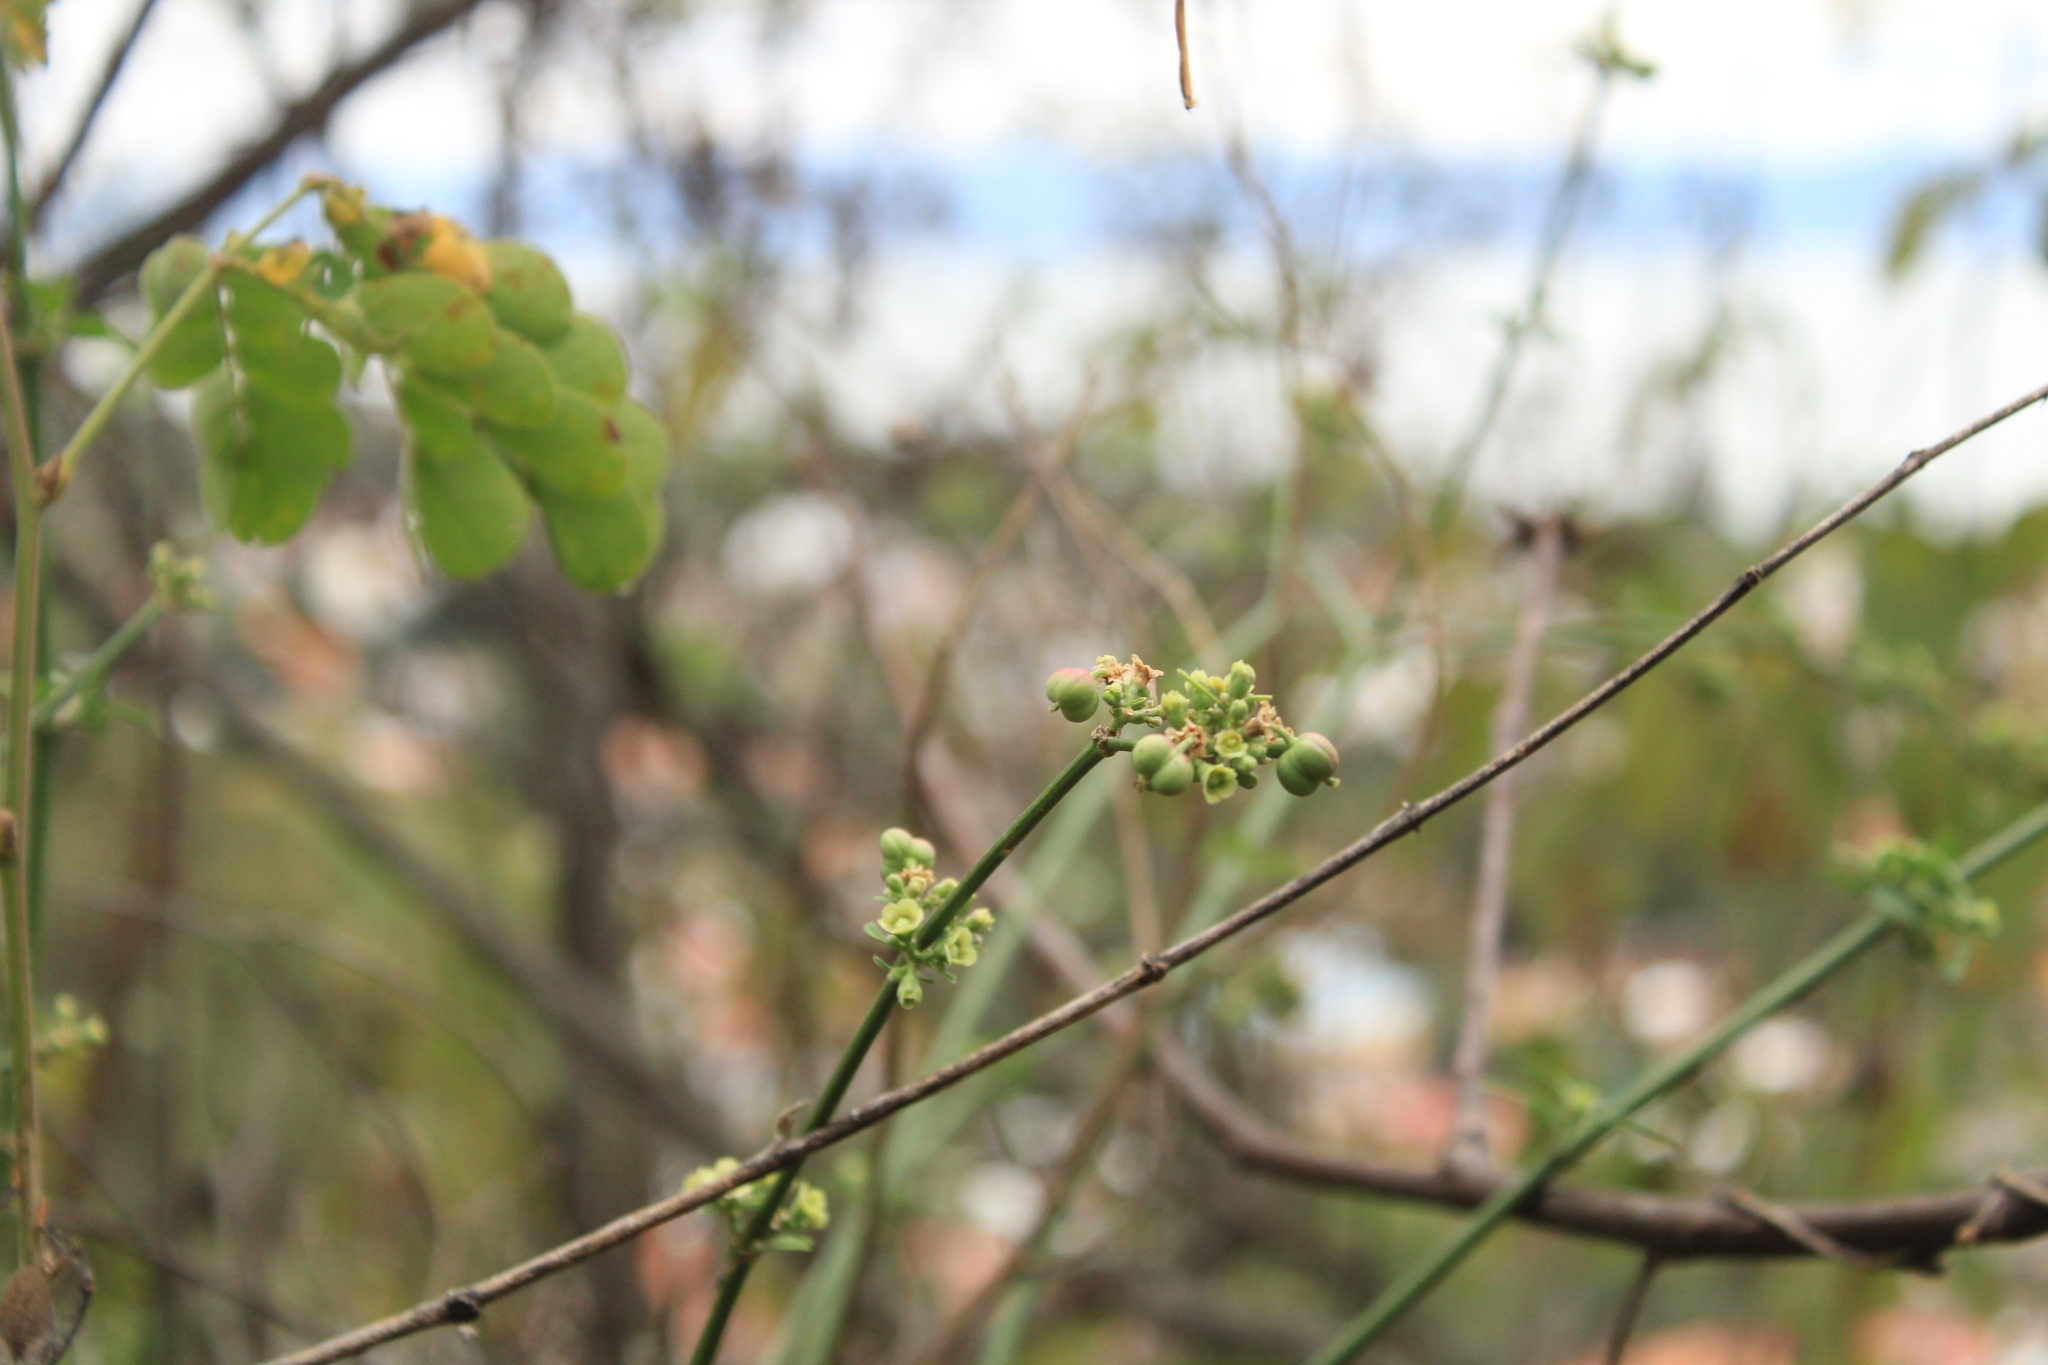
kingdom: Plantae
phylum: Tracheophyta
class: Magnoliopsida
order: Malpighiales
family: Euphorbiaceae
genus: Euphorbia
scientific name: Euphorbia cymosa
